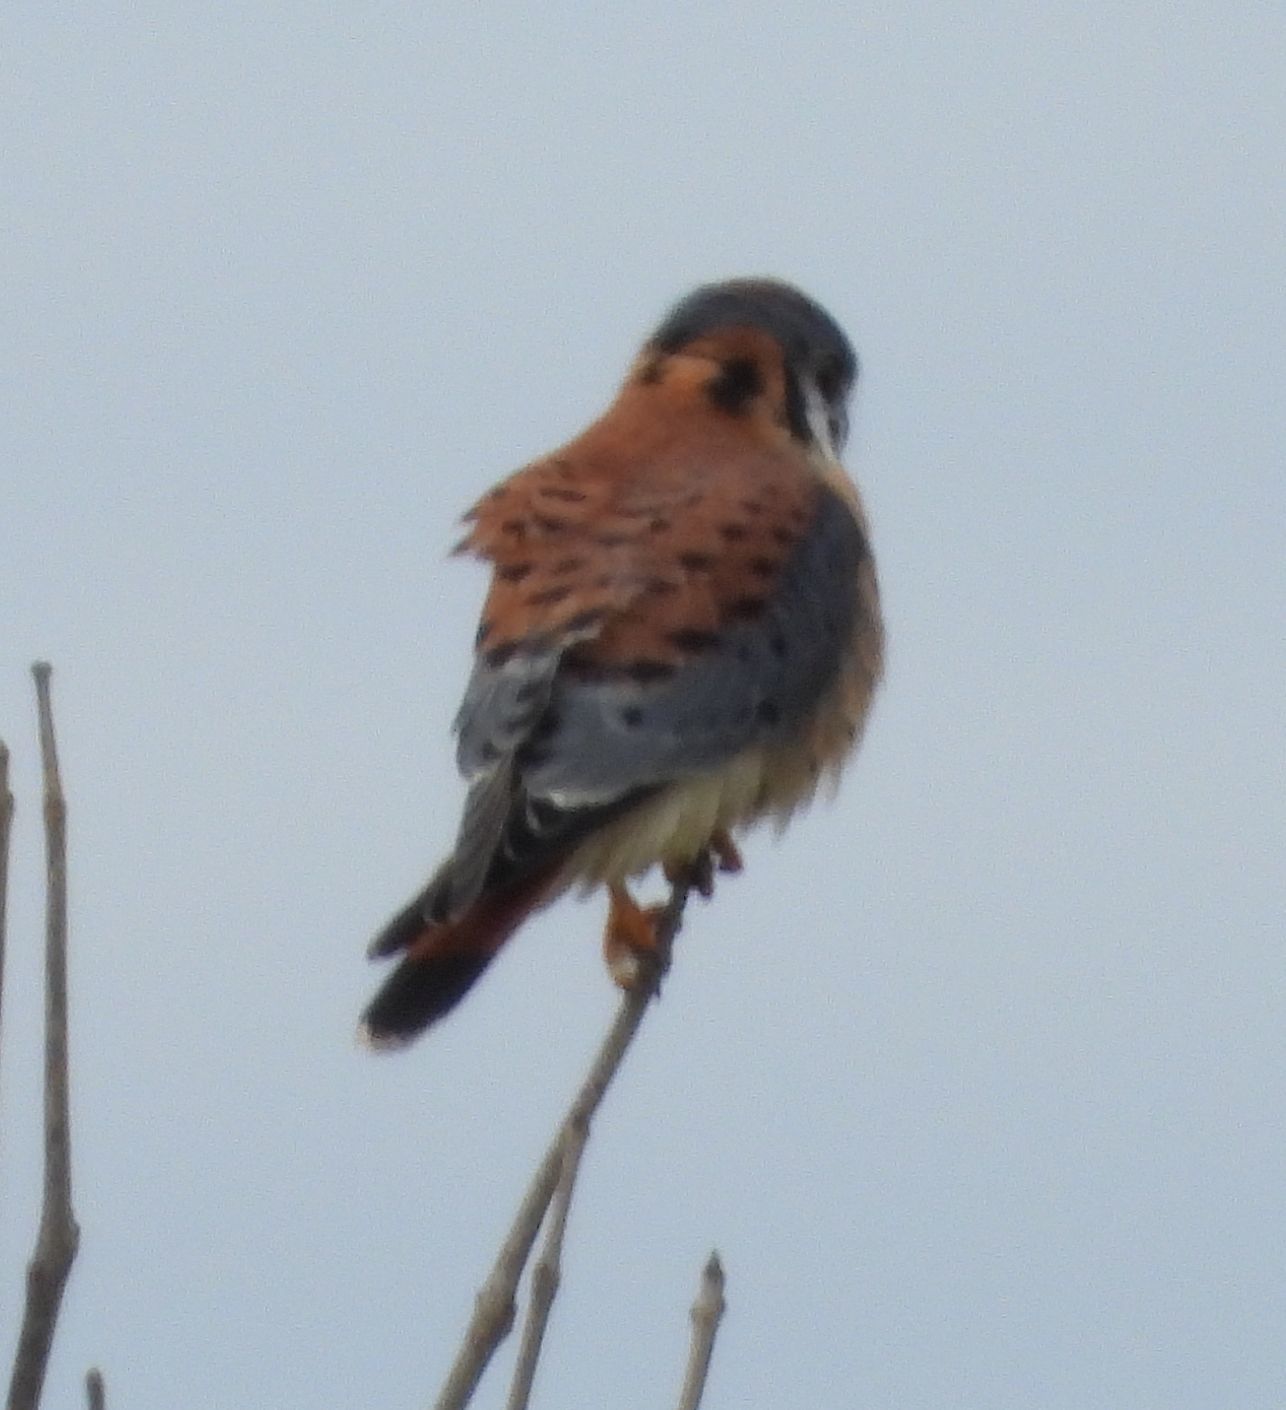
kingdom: Animalia
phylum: Chordata
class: Aves
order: Falconiformes
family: Falconidae
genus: Falco
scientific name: Falco sparverius
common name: American kestrel
